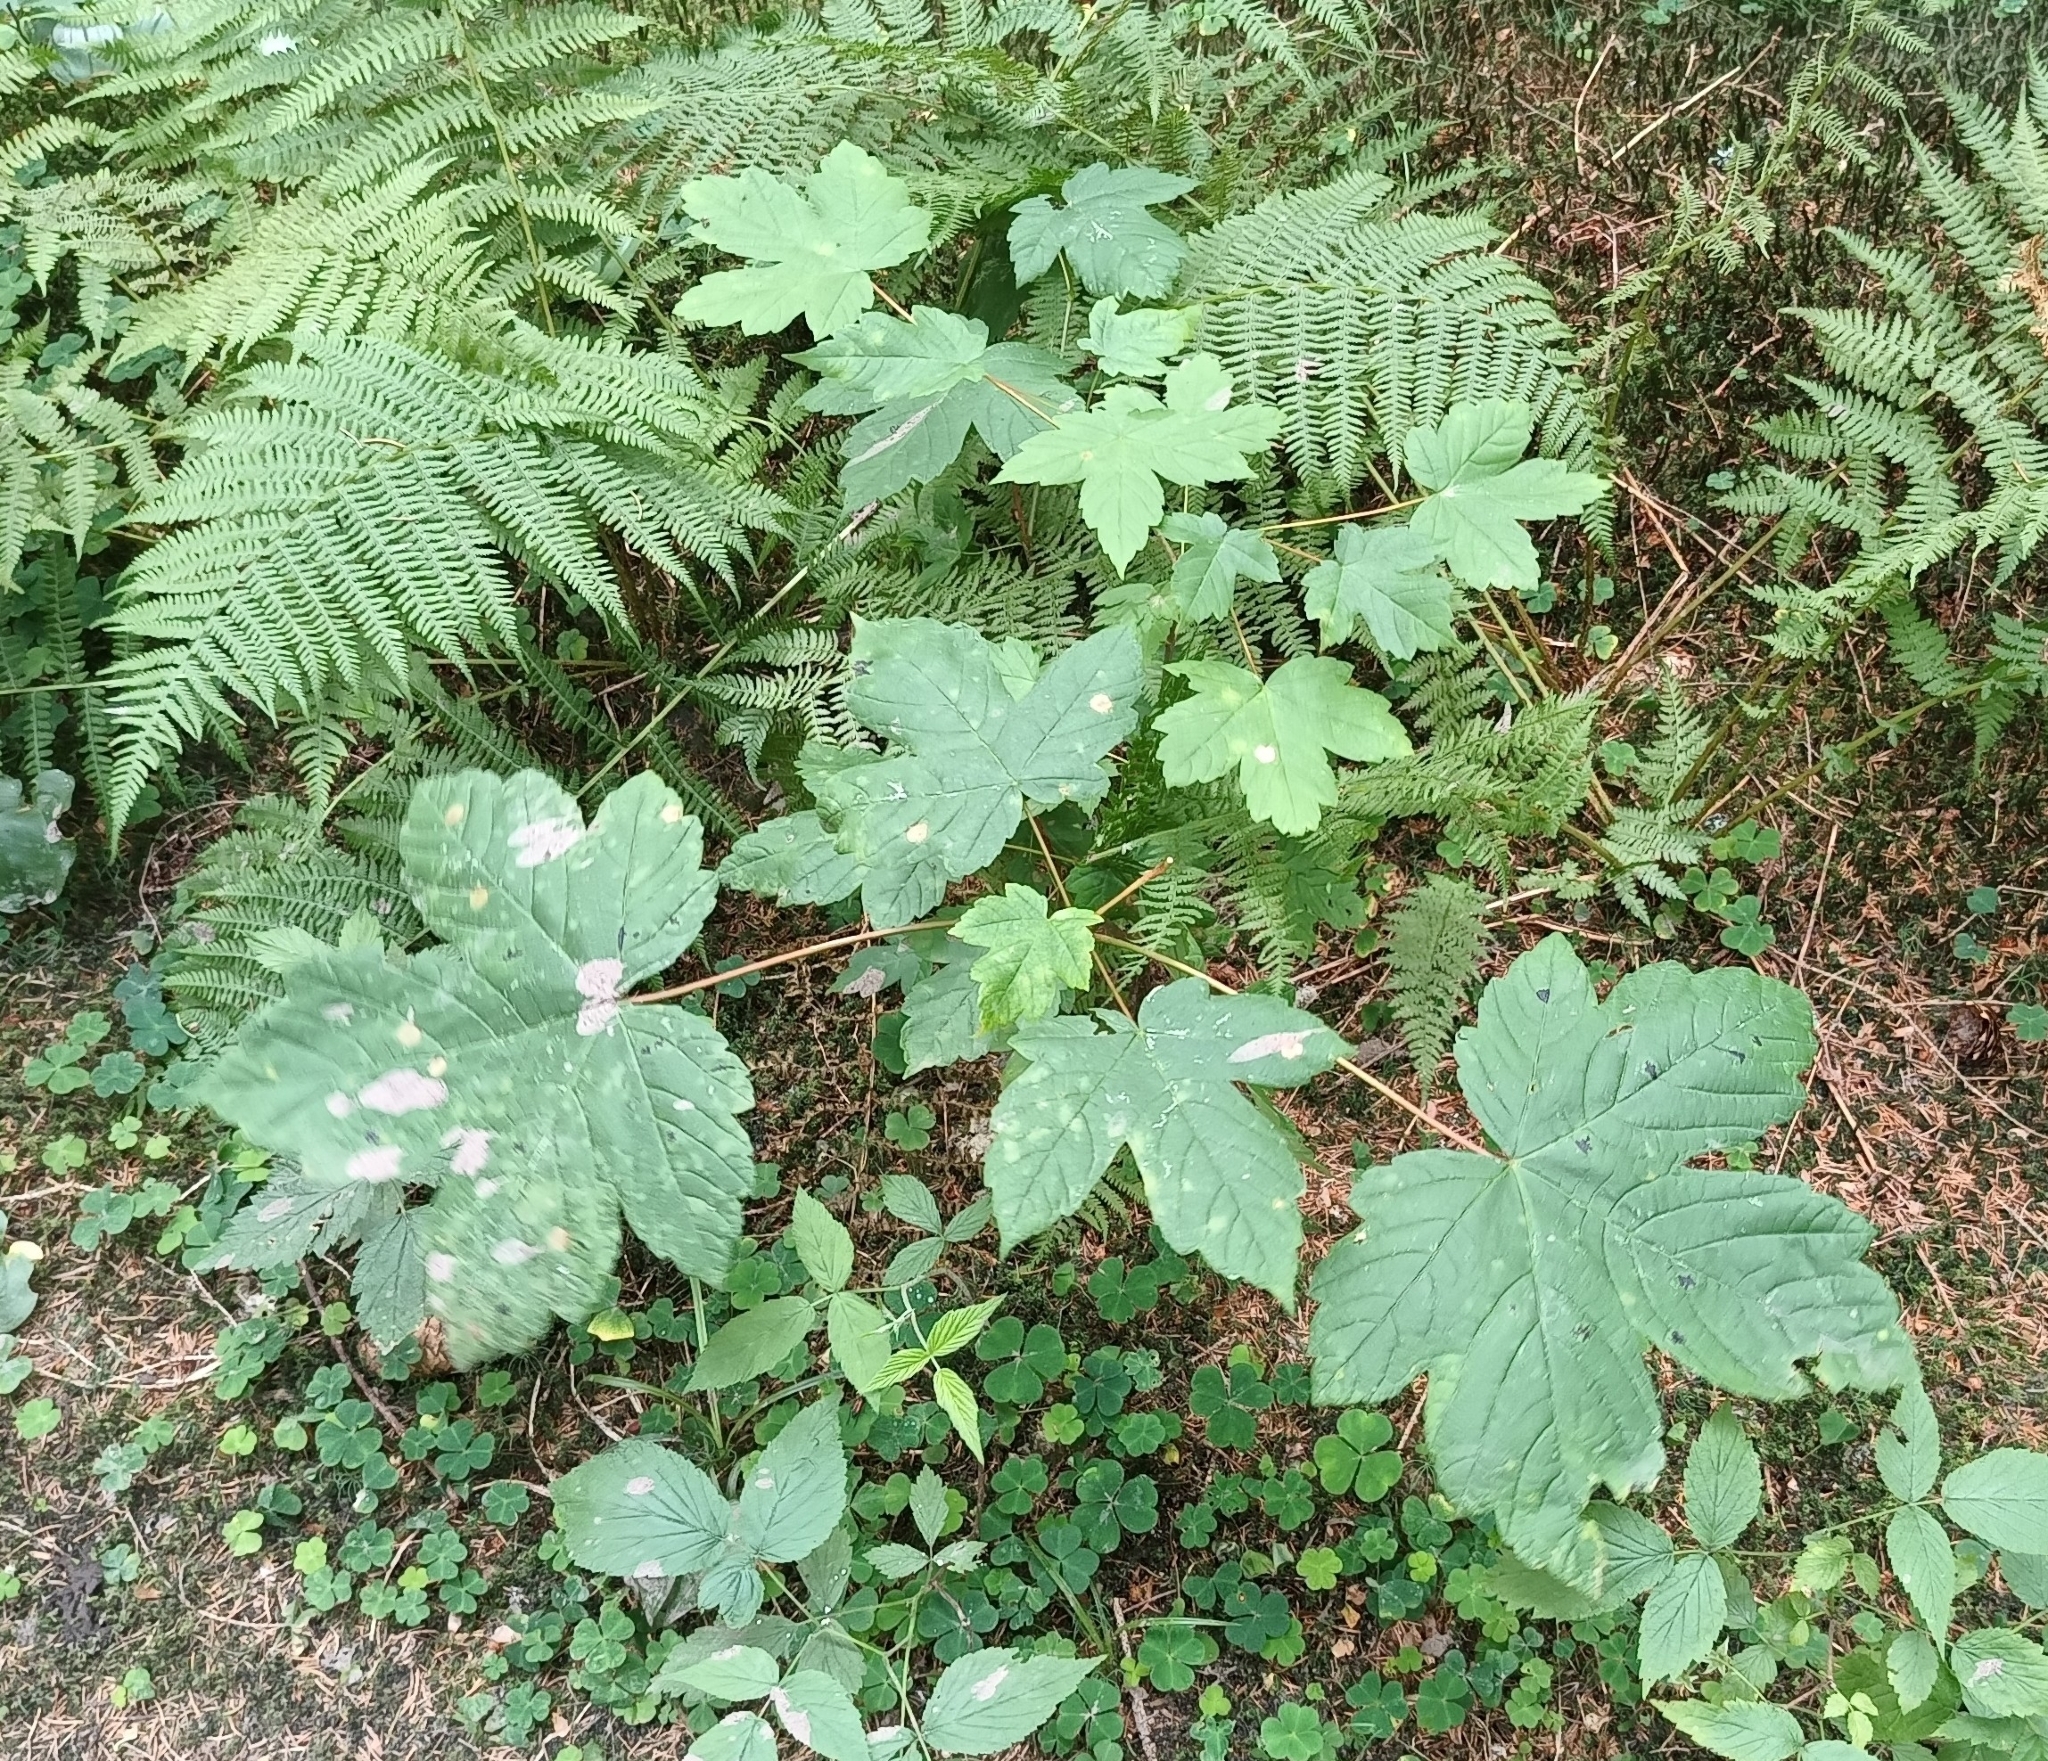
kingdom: Plantae
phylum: Tracheophyta
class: Magnoliopsida
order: Sapindales
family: Sapindaceae
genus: Acer
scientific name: Acer pseudoplatanus
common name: Sycamore
